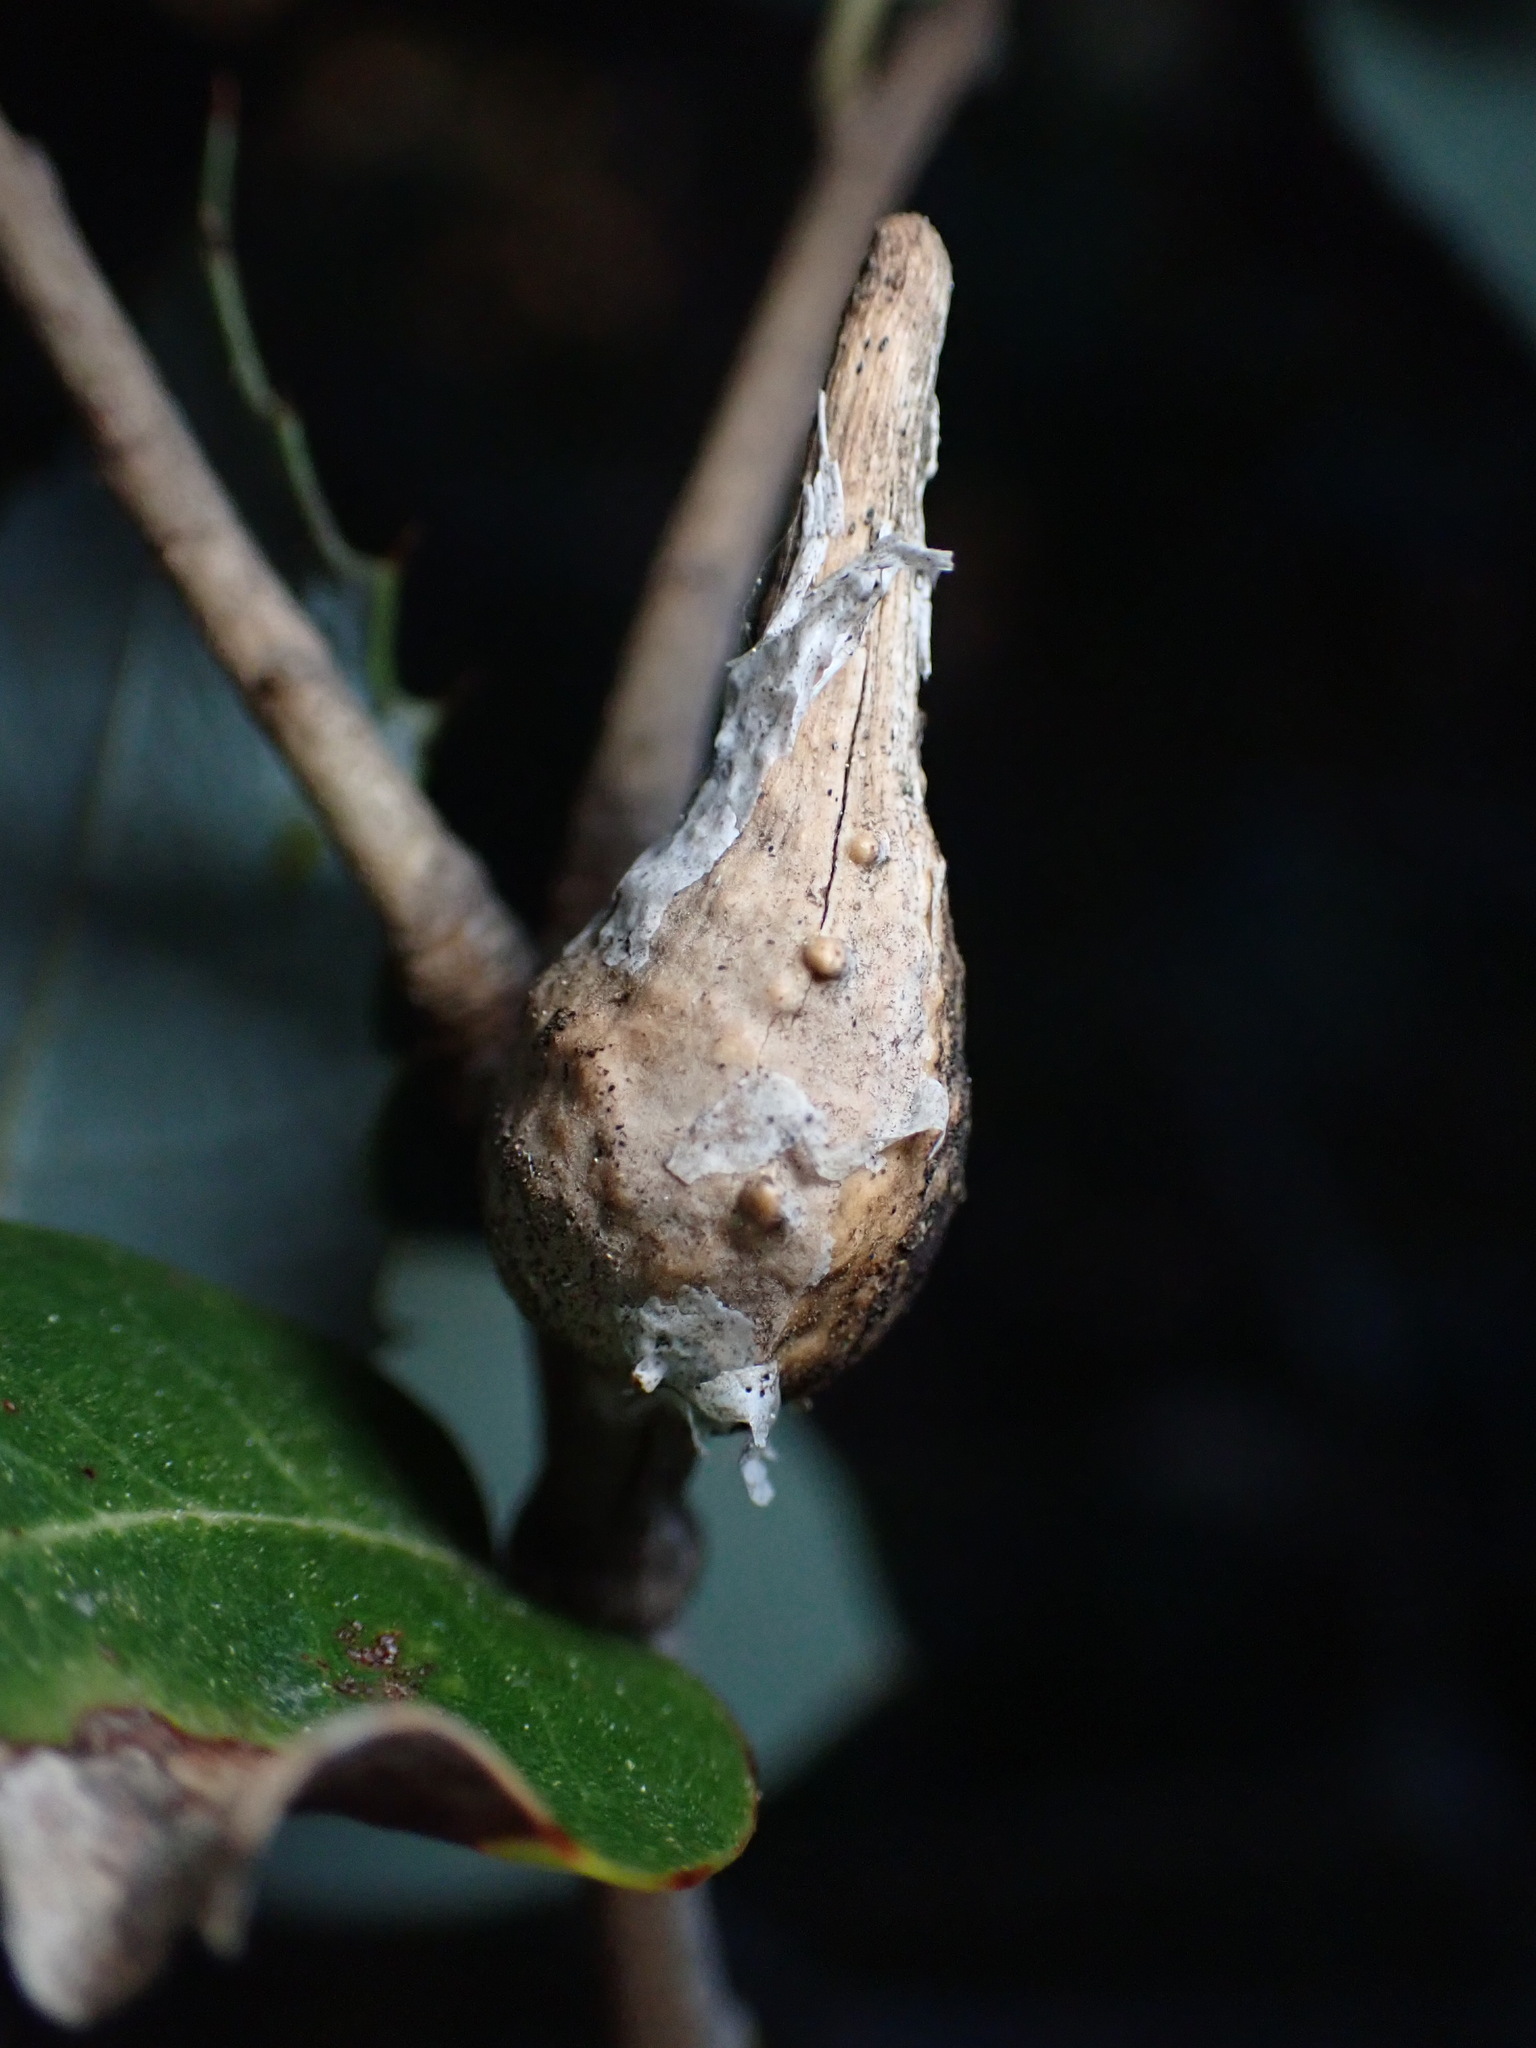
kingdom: Animalia
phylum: Arthropoda
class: Insecta
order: Hymenoptera
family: Cynipidae
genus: Heteroecus
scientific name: Heteroecus
